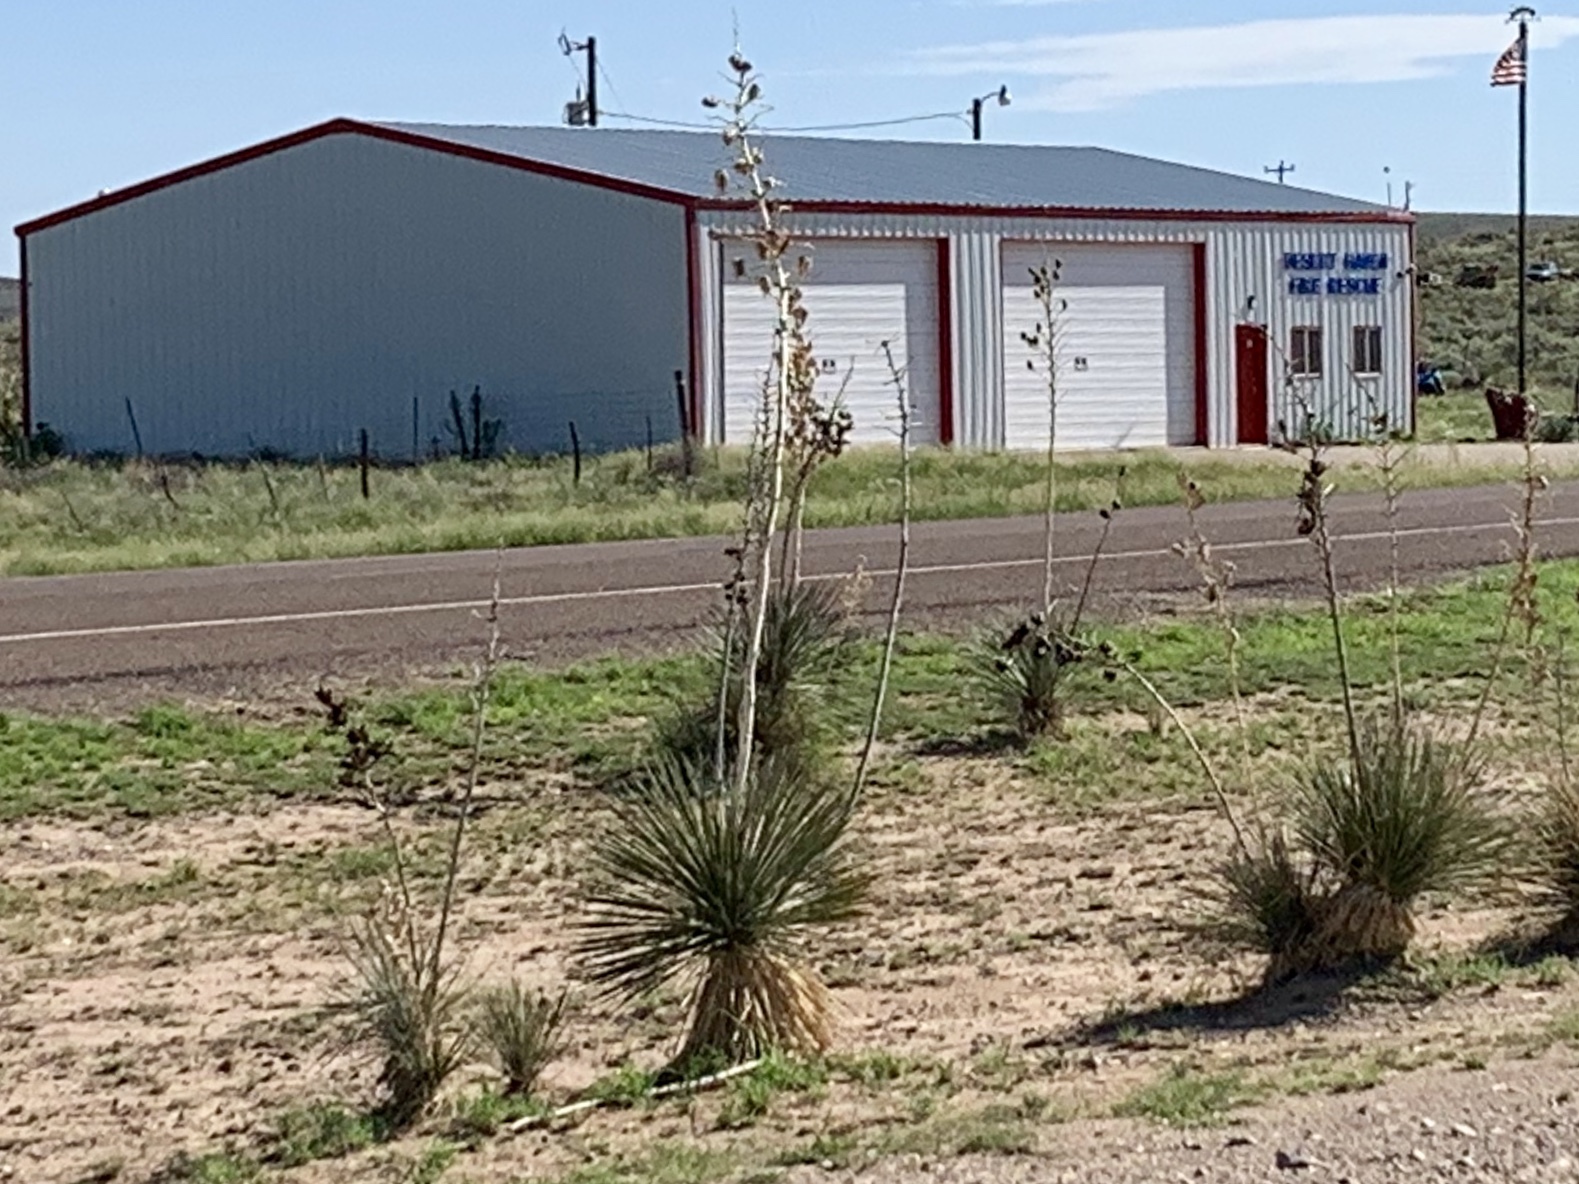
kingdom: Plantae
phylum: Tracheophyta
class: Liliopsida
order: Asparagales
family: Asparagaceae
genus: Yucca
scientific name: Yucca elata
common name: Palmella
